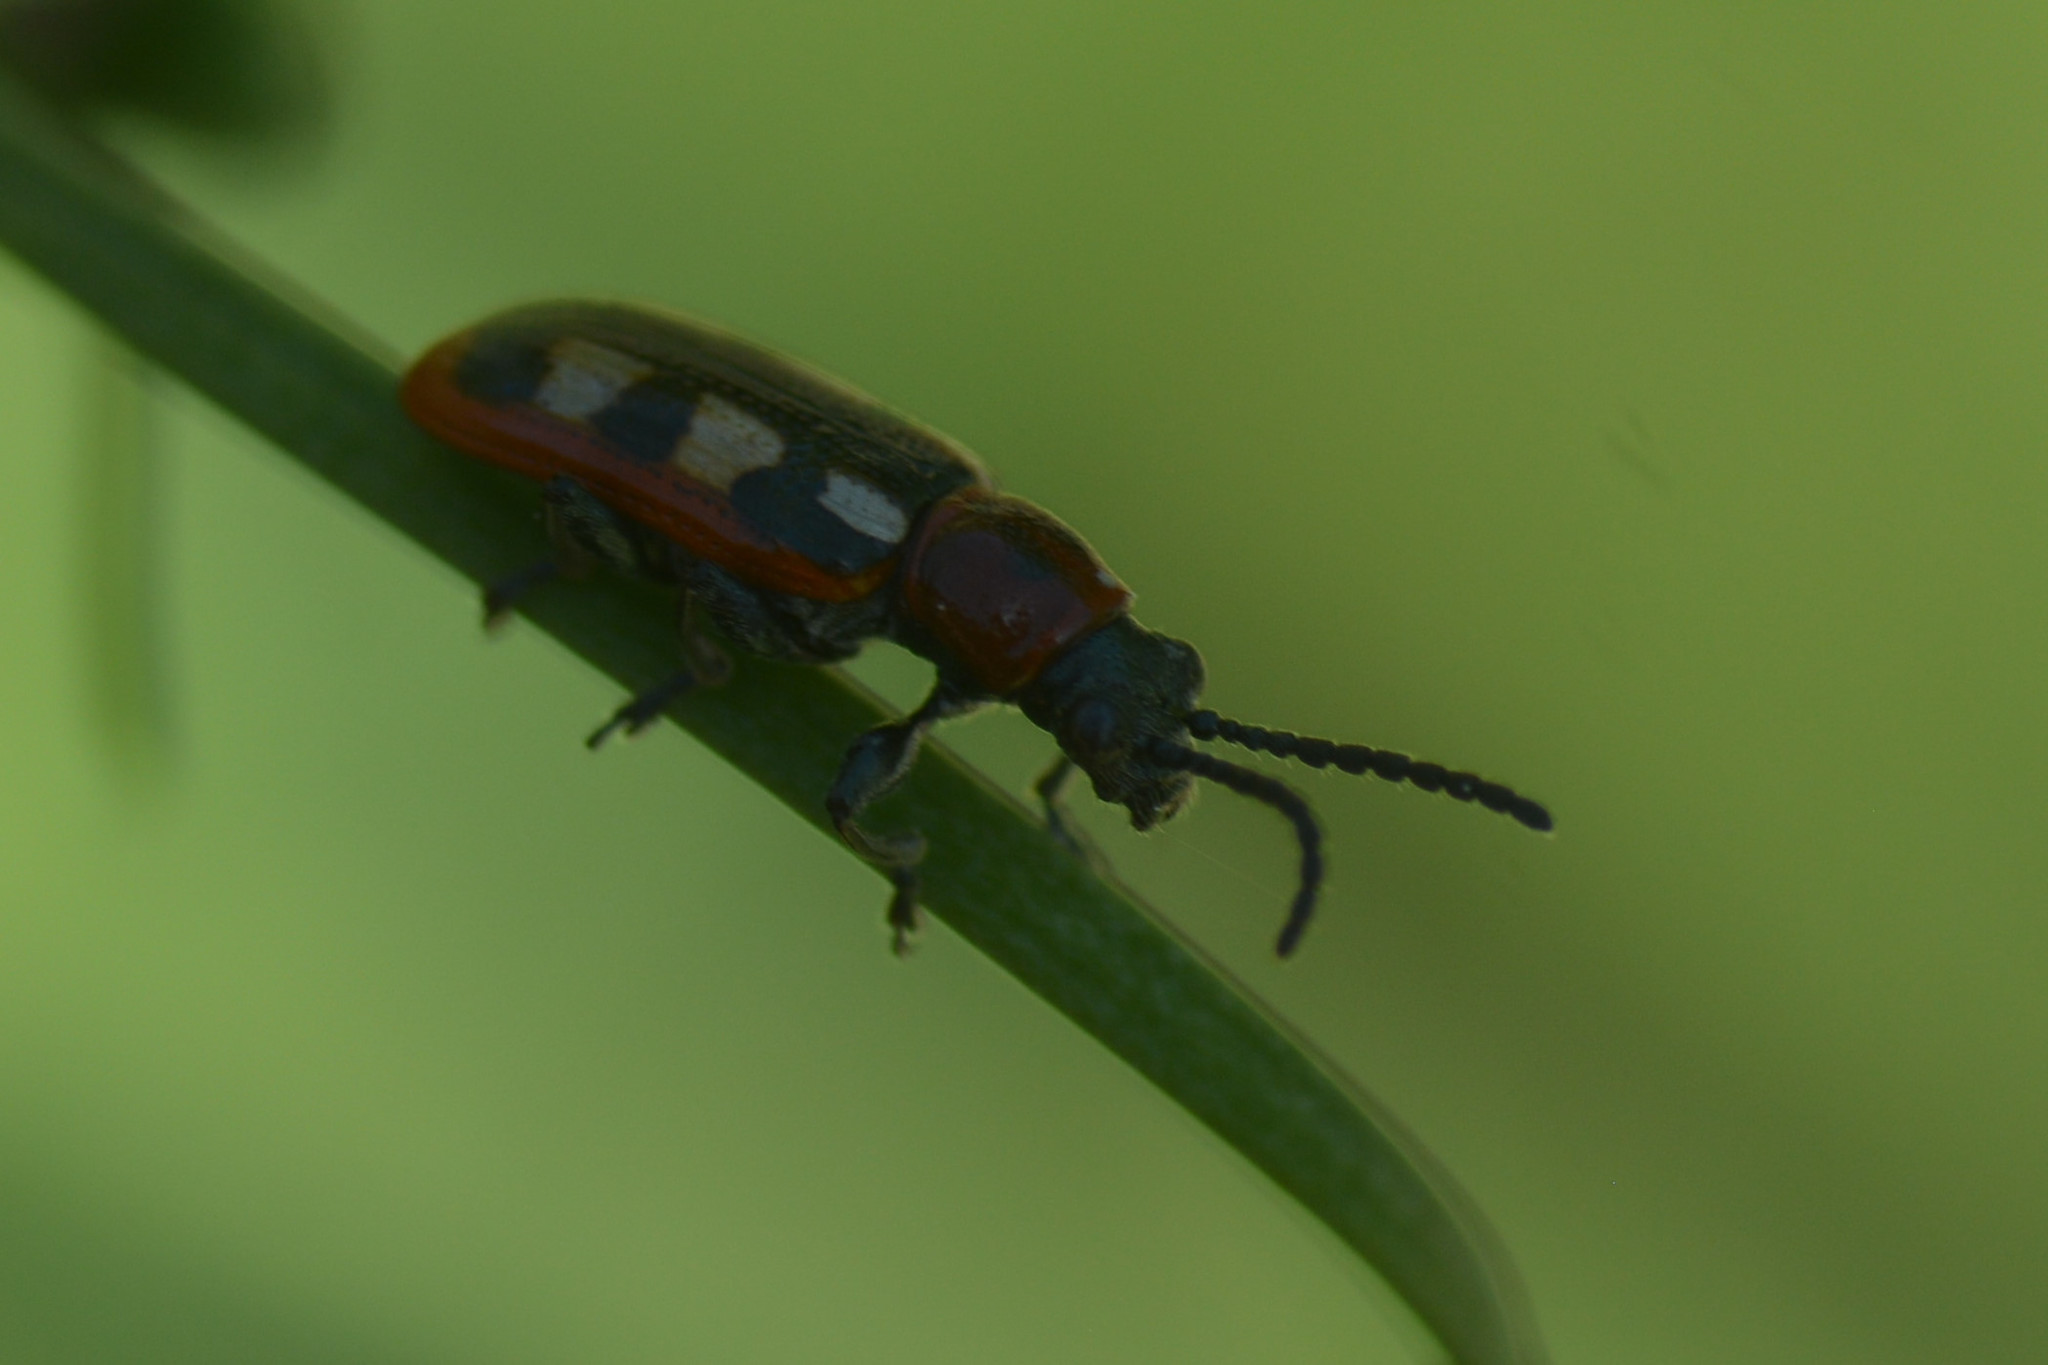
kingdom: Animalia
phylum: Arthropoda
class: Insecta
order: Coleoptera
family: Chrysomelidae
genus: Crioceris
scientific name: Crioceris asparagi
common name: Asparagus beetle
